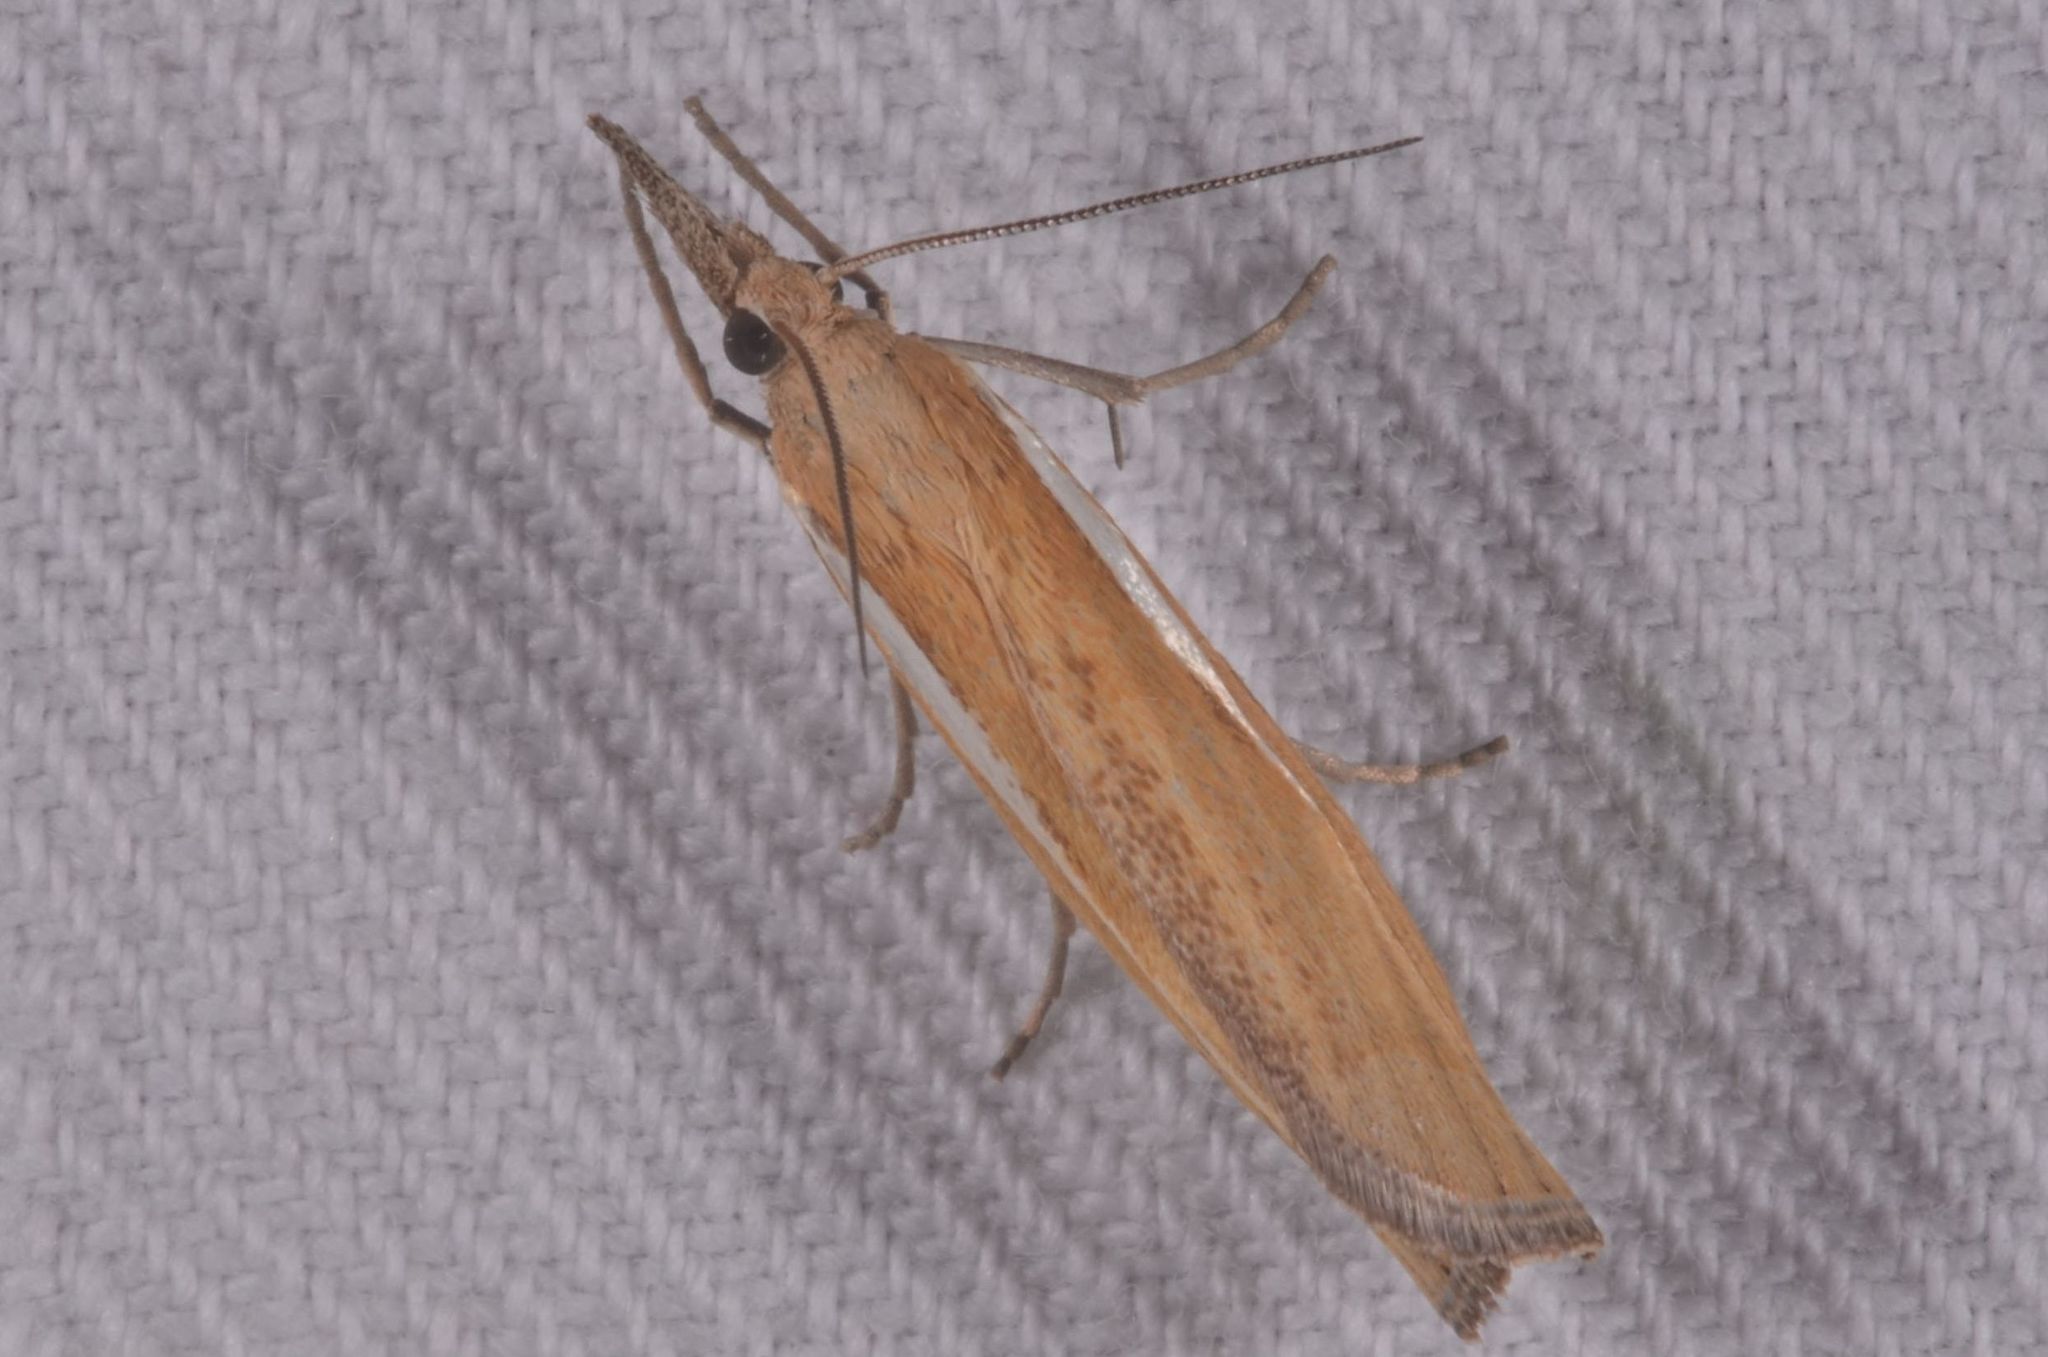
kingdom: Animalia
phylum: Arthropoda
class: Insecta
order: Lepidoptera
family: Crambidae
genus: Agriphila
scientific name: Agriphila tristellus
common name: Common grass-veneer
